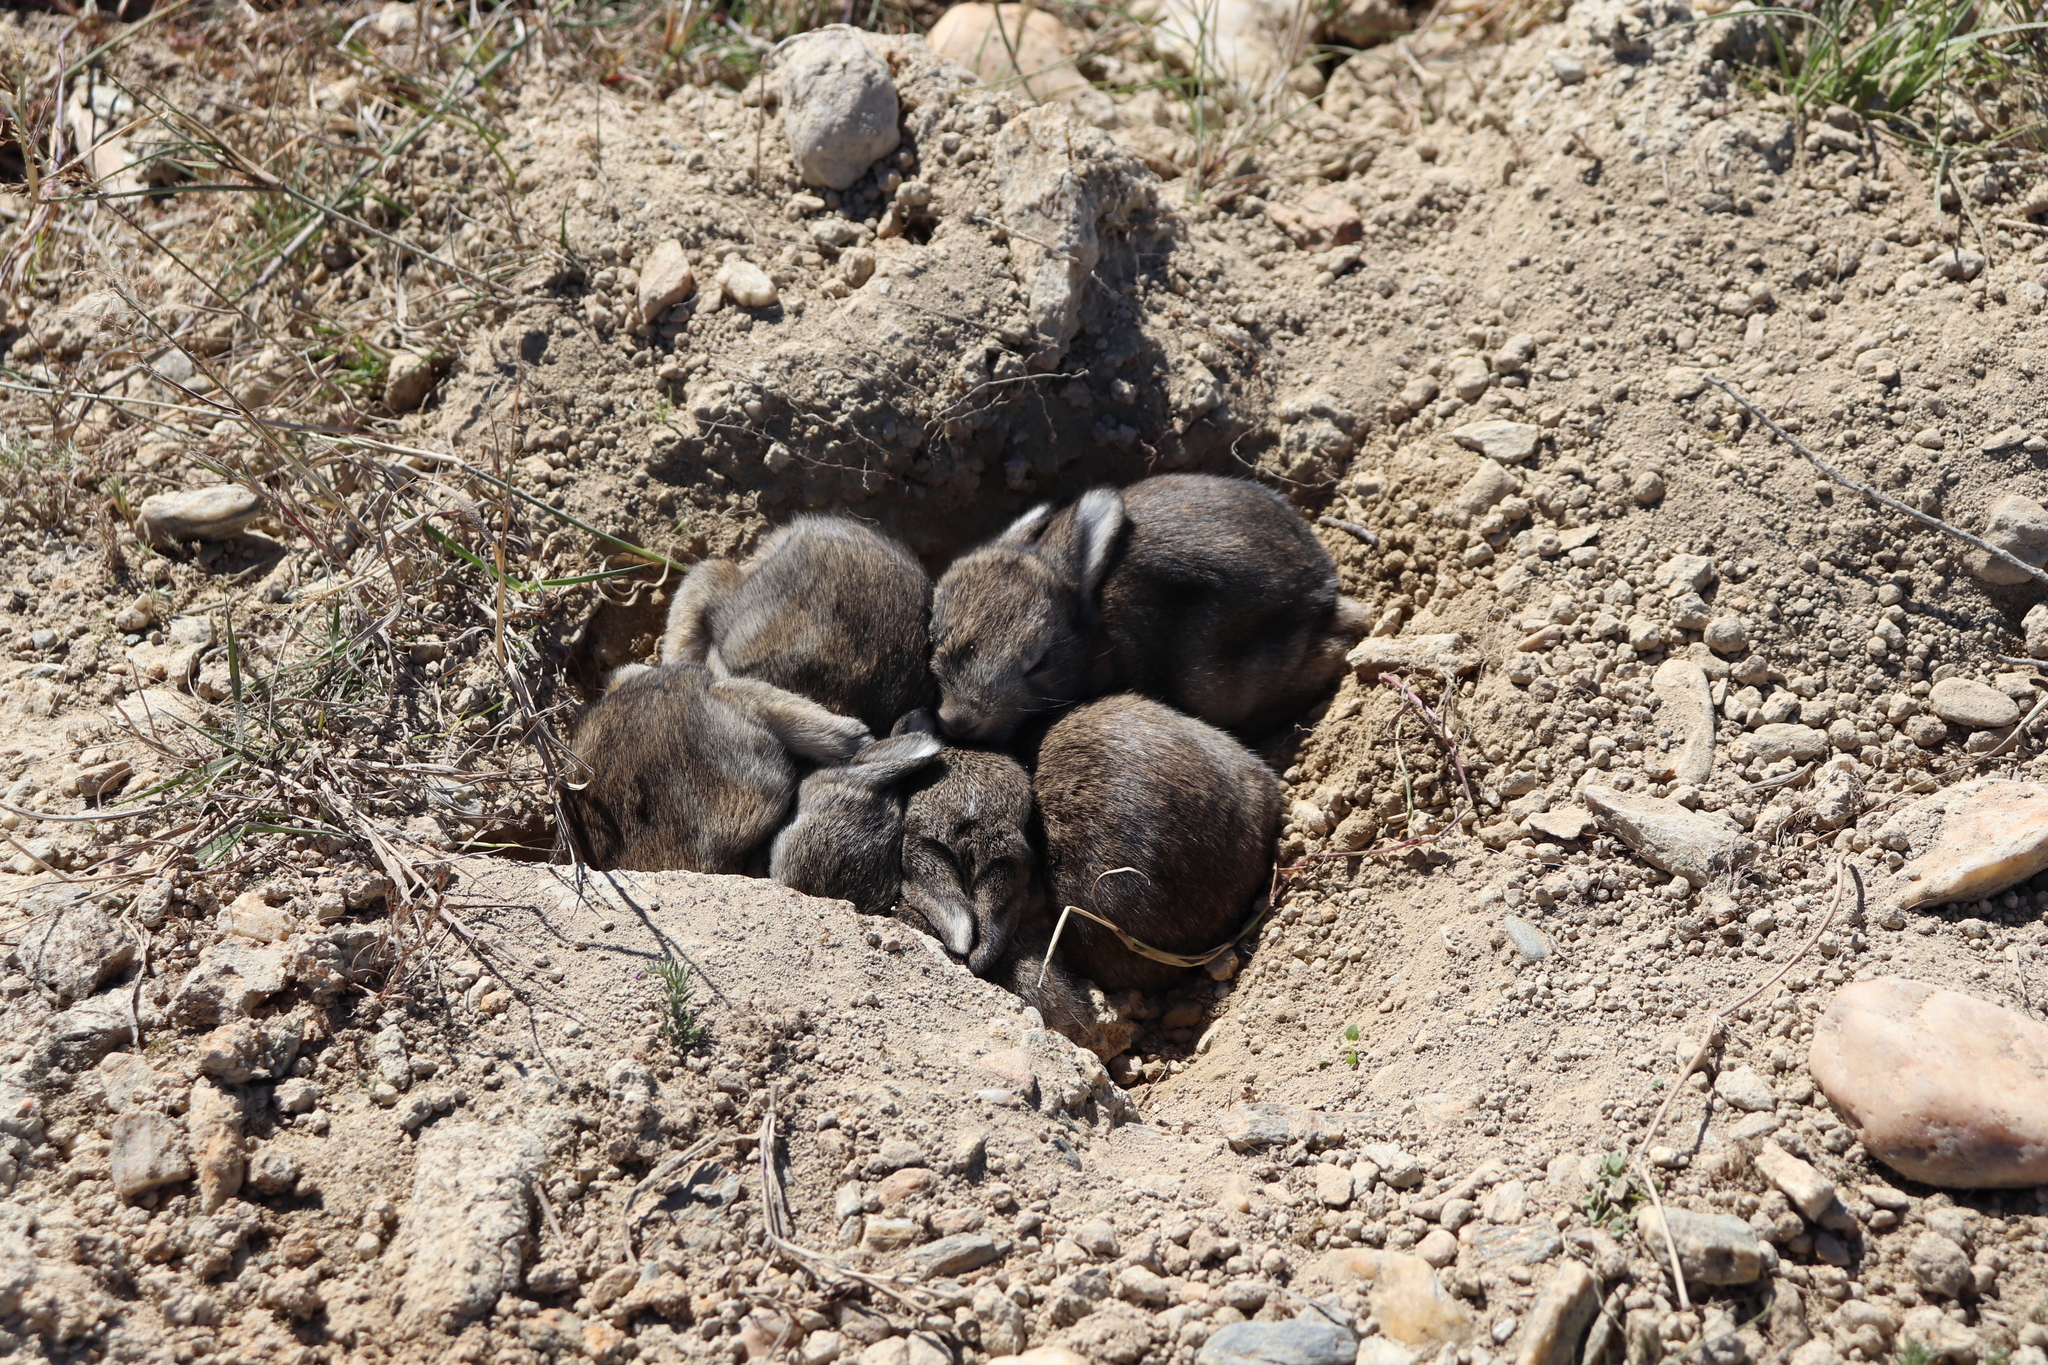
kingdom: Animalia
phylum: Chordata
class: Mammalia
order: Lagomorpha
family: Leporidae
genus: Oryctolagus
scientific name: Oryctolagus cuniculus
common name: European rabbit
